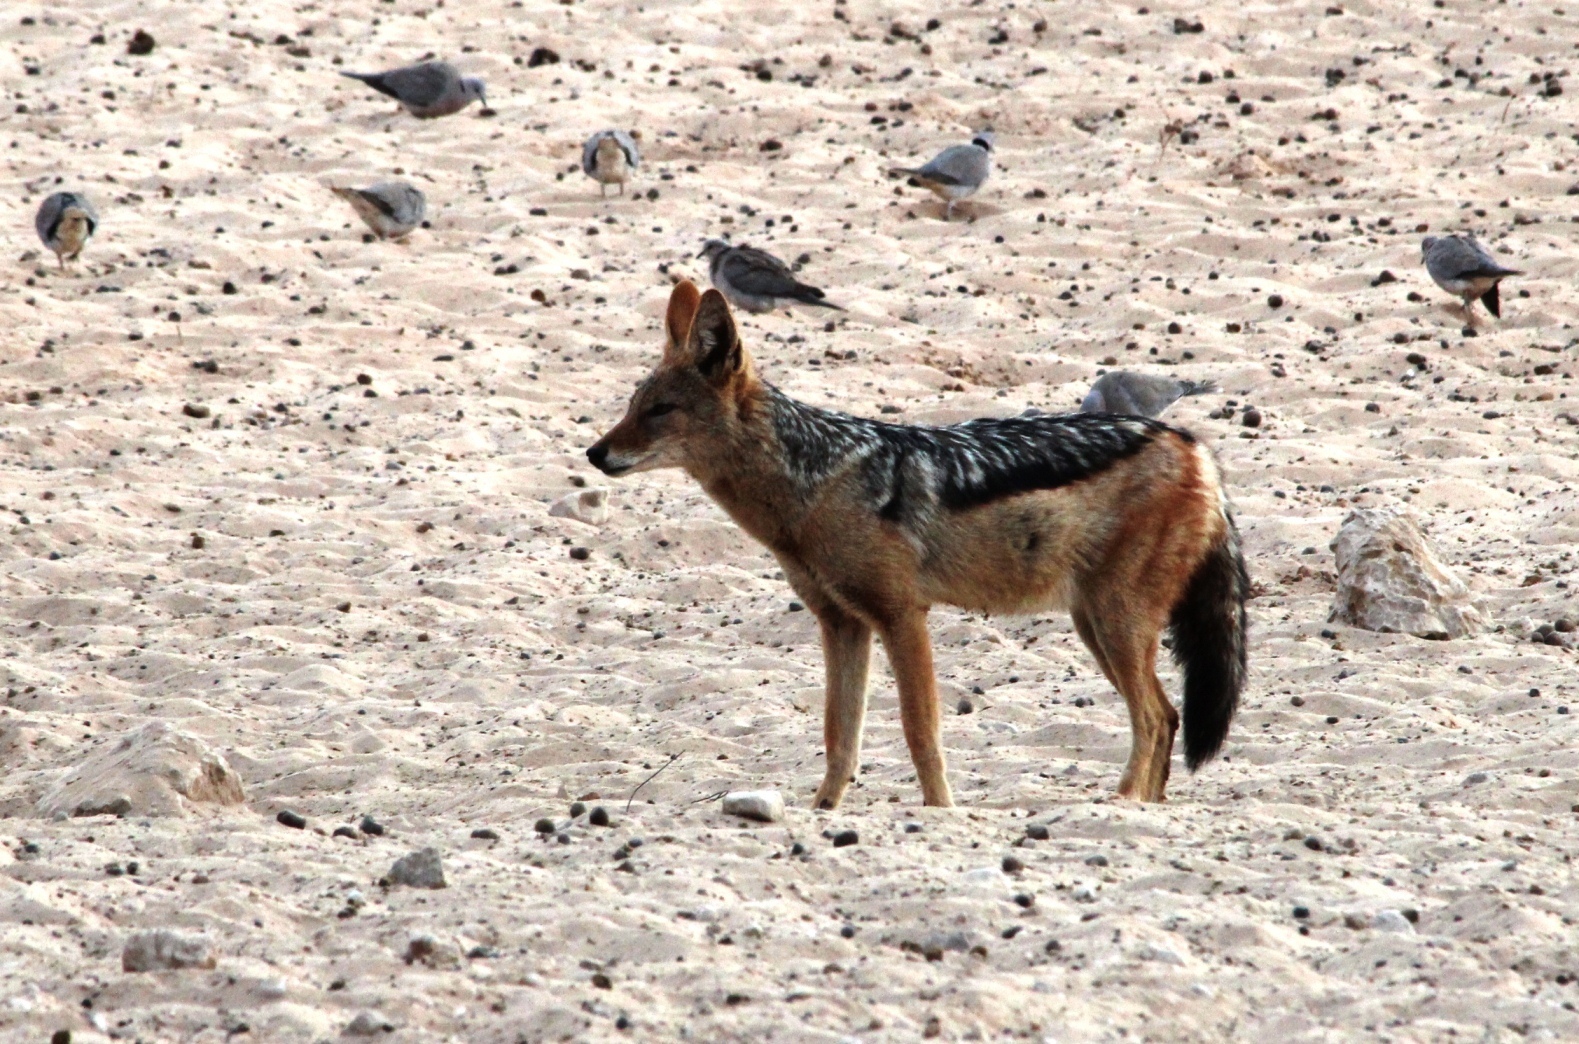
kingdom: Animalia
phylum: Chordata
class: Mammalia
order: Carnivora
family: Canidae
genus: Lupulella
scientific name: Lupulella
